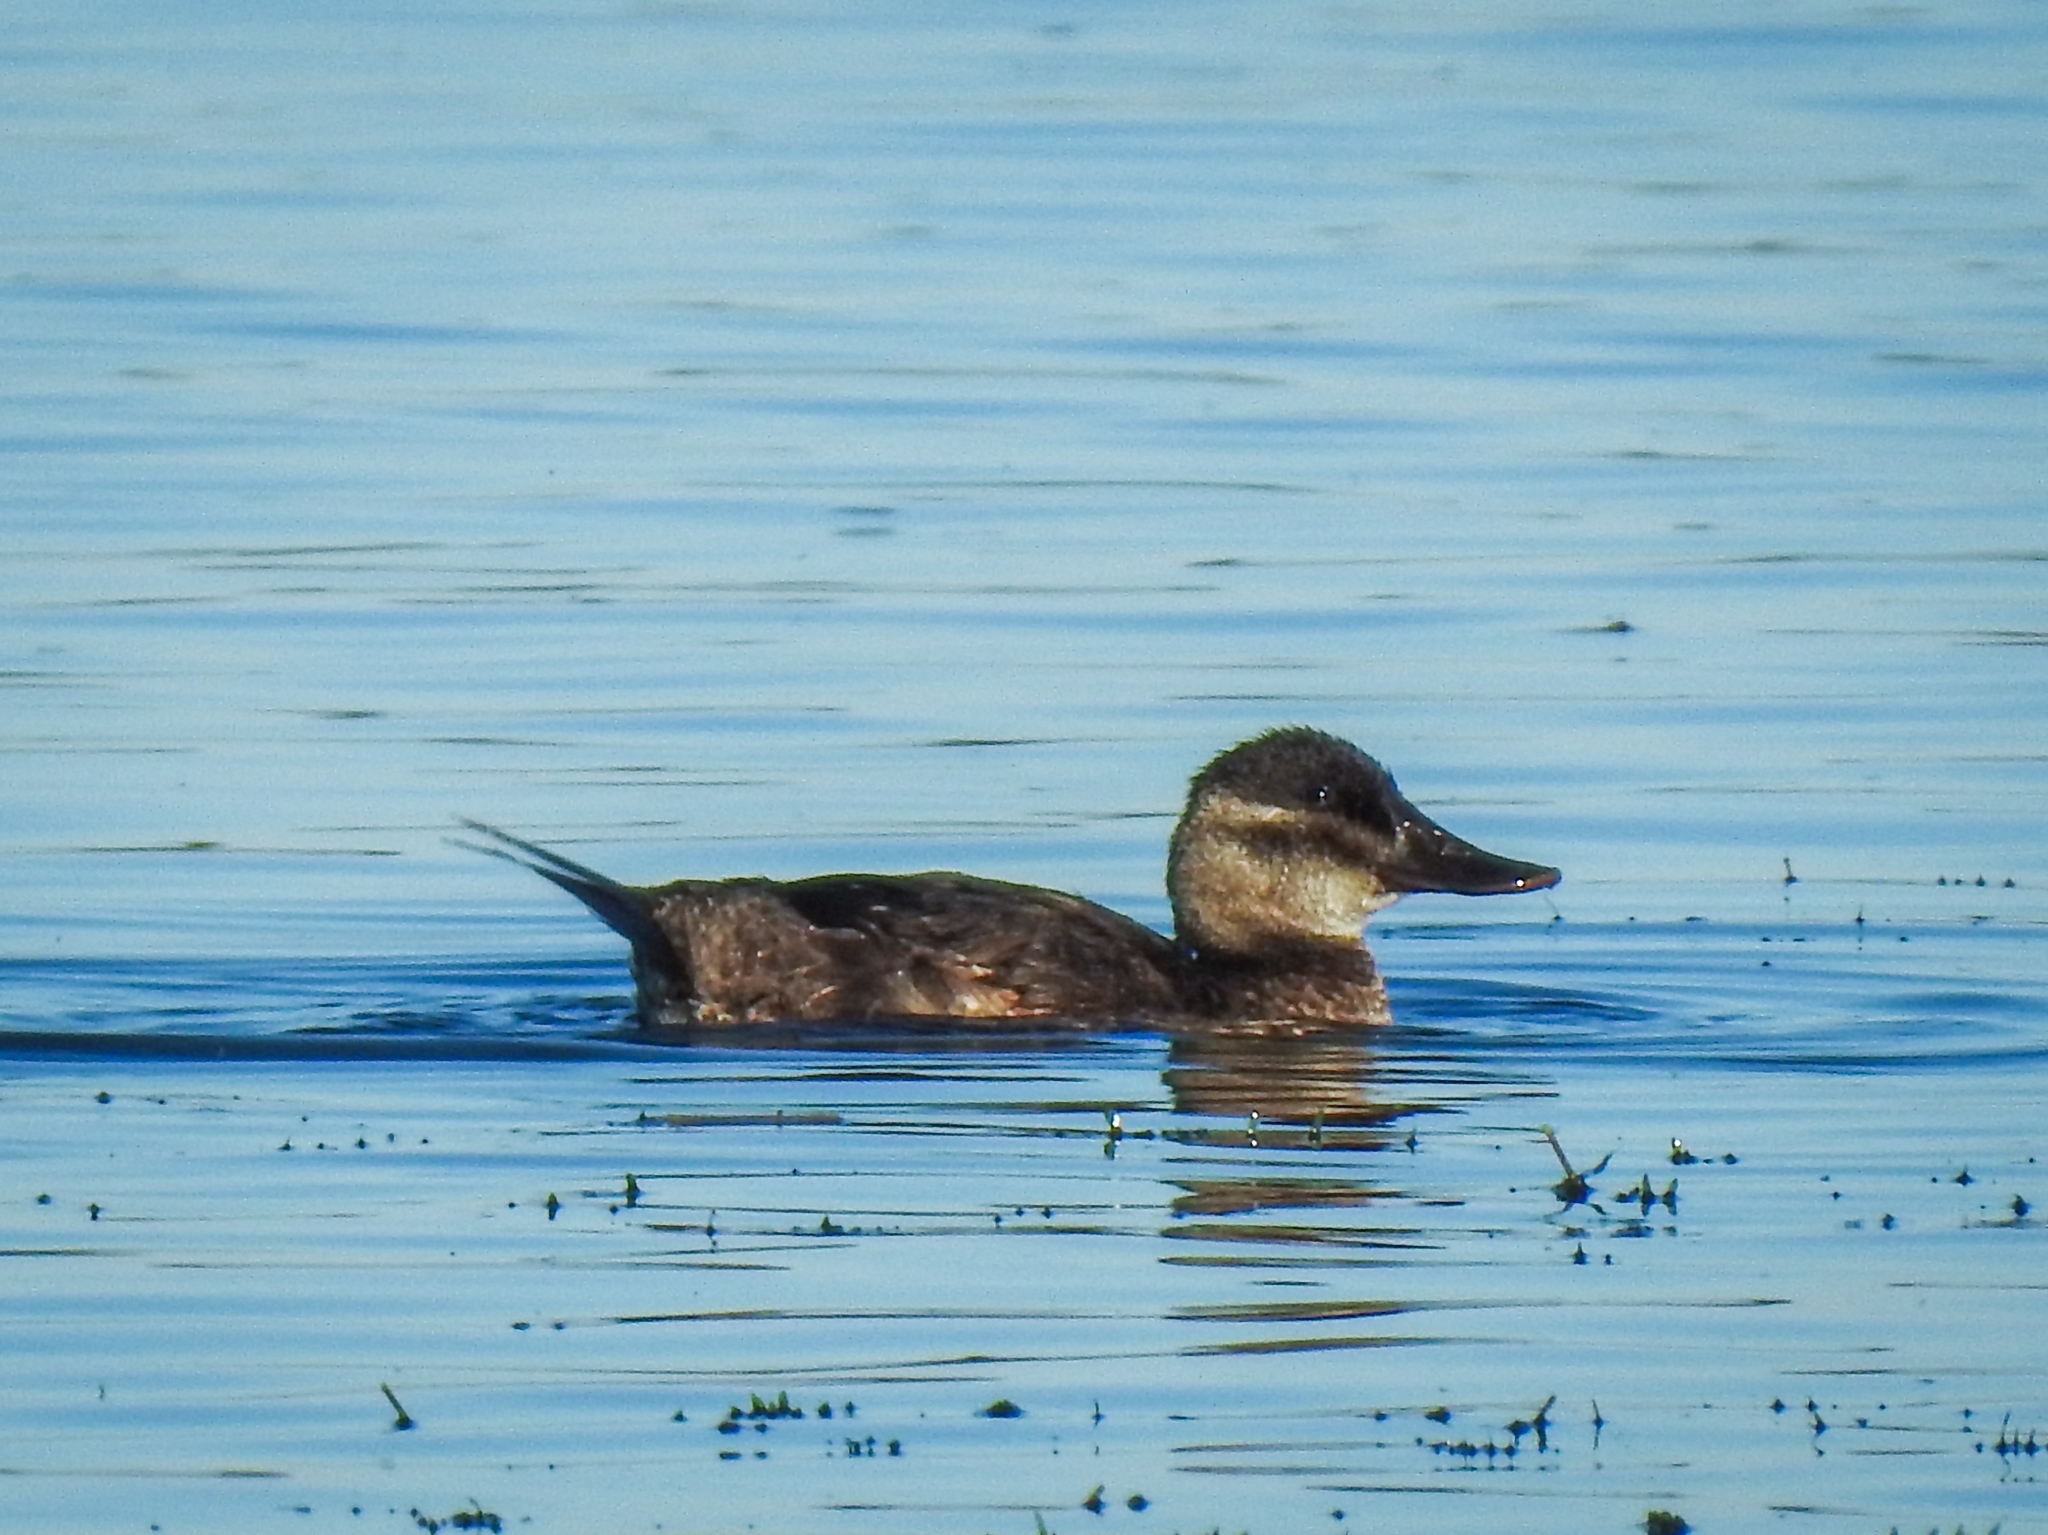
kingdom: Animalia
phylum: Chordata
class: Aves
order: Anseriformes
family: Anatidae
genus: Oxyura
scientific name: Oxyura jamaicensis
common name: Ruddy duck
